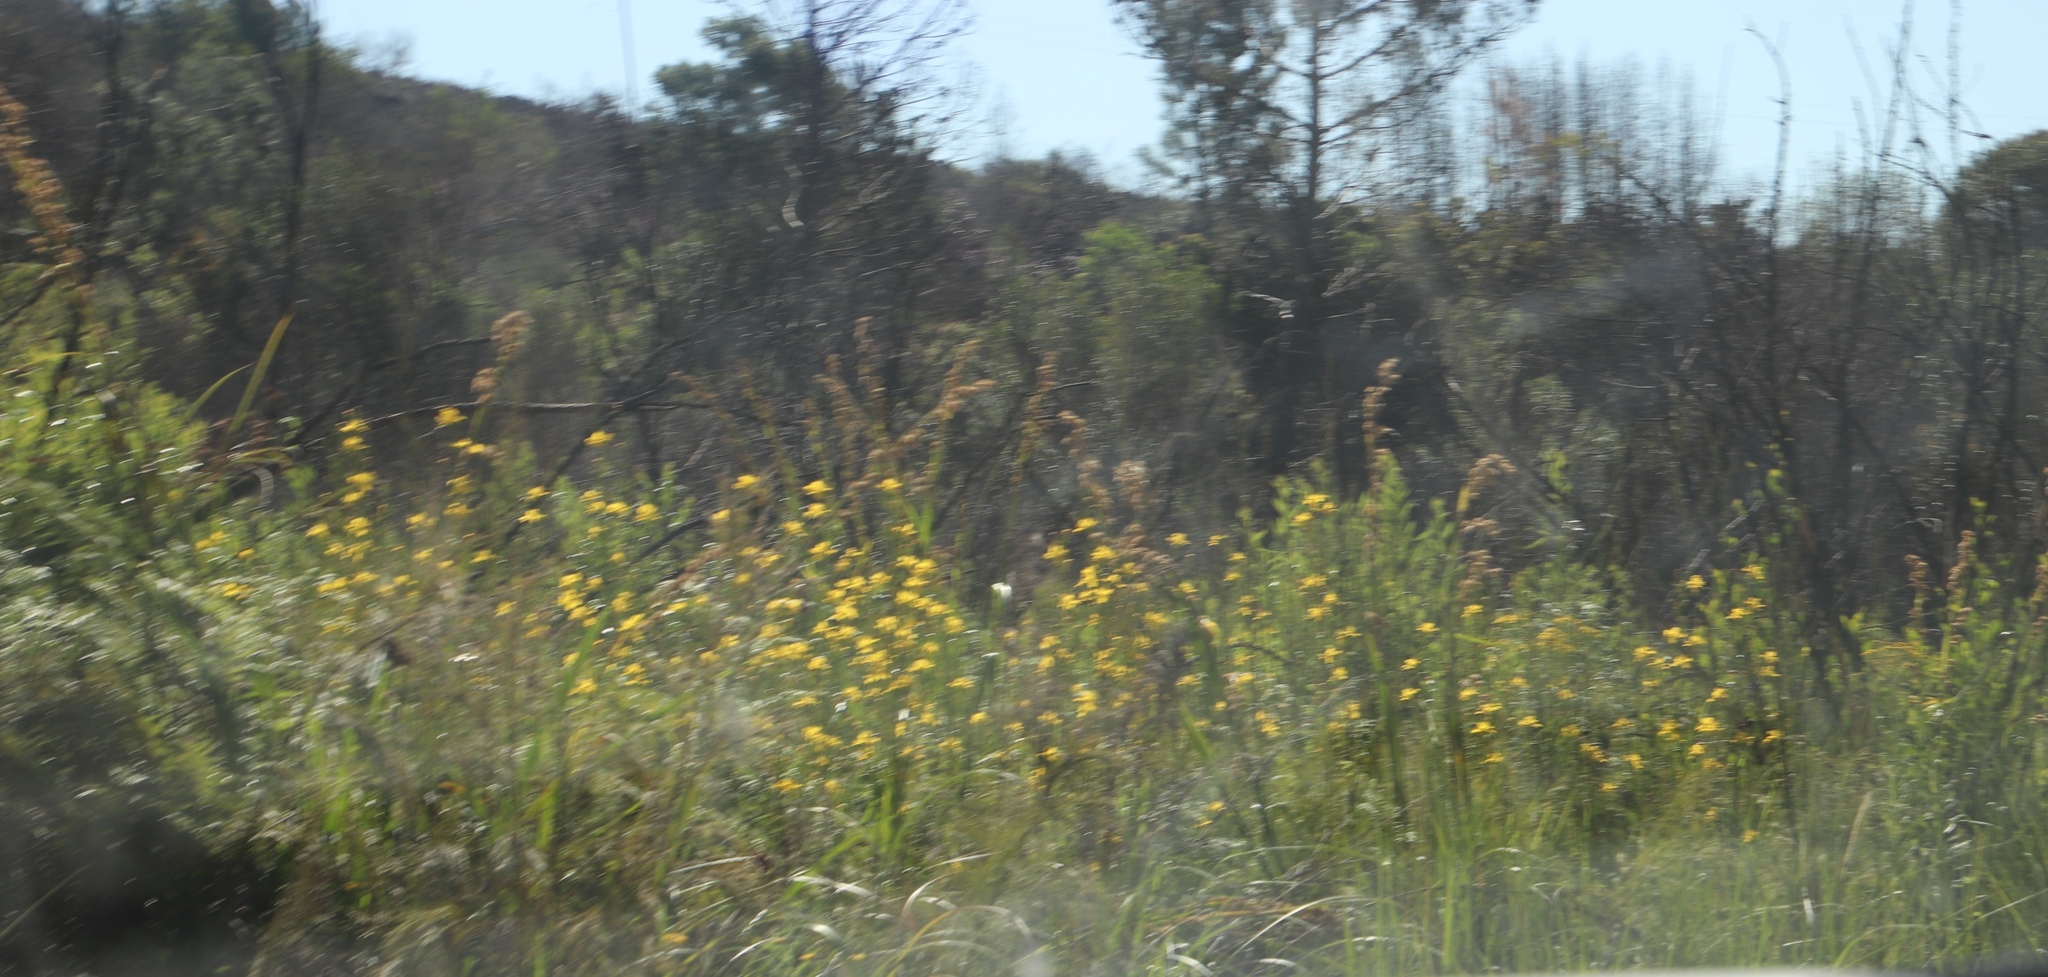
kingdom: Plantae
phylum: Tracheophyta
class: Liliopsida
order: Asparagales
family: Iridaceae
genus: Moraea
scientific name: Moraea ramosissima
